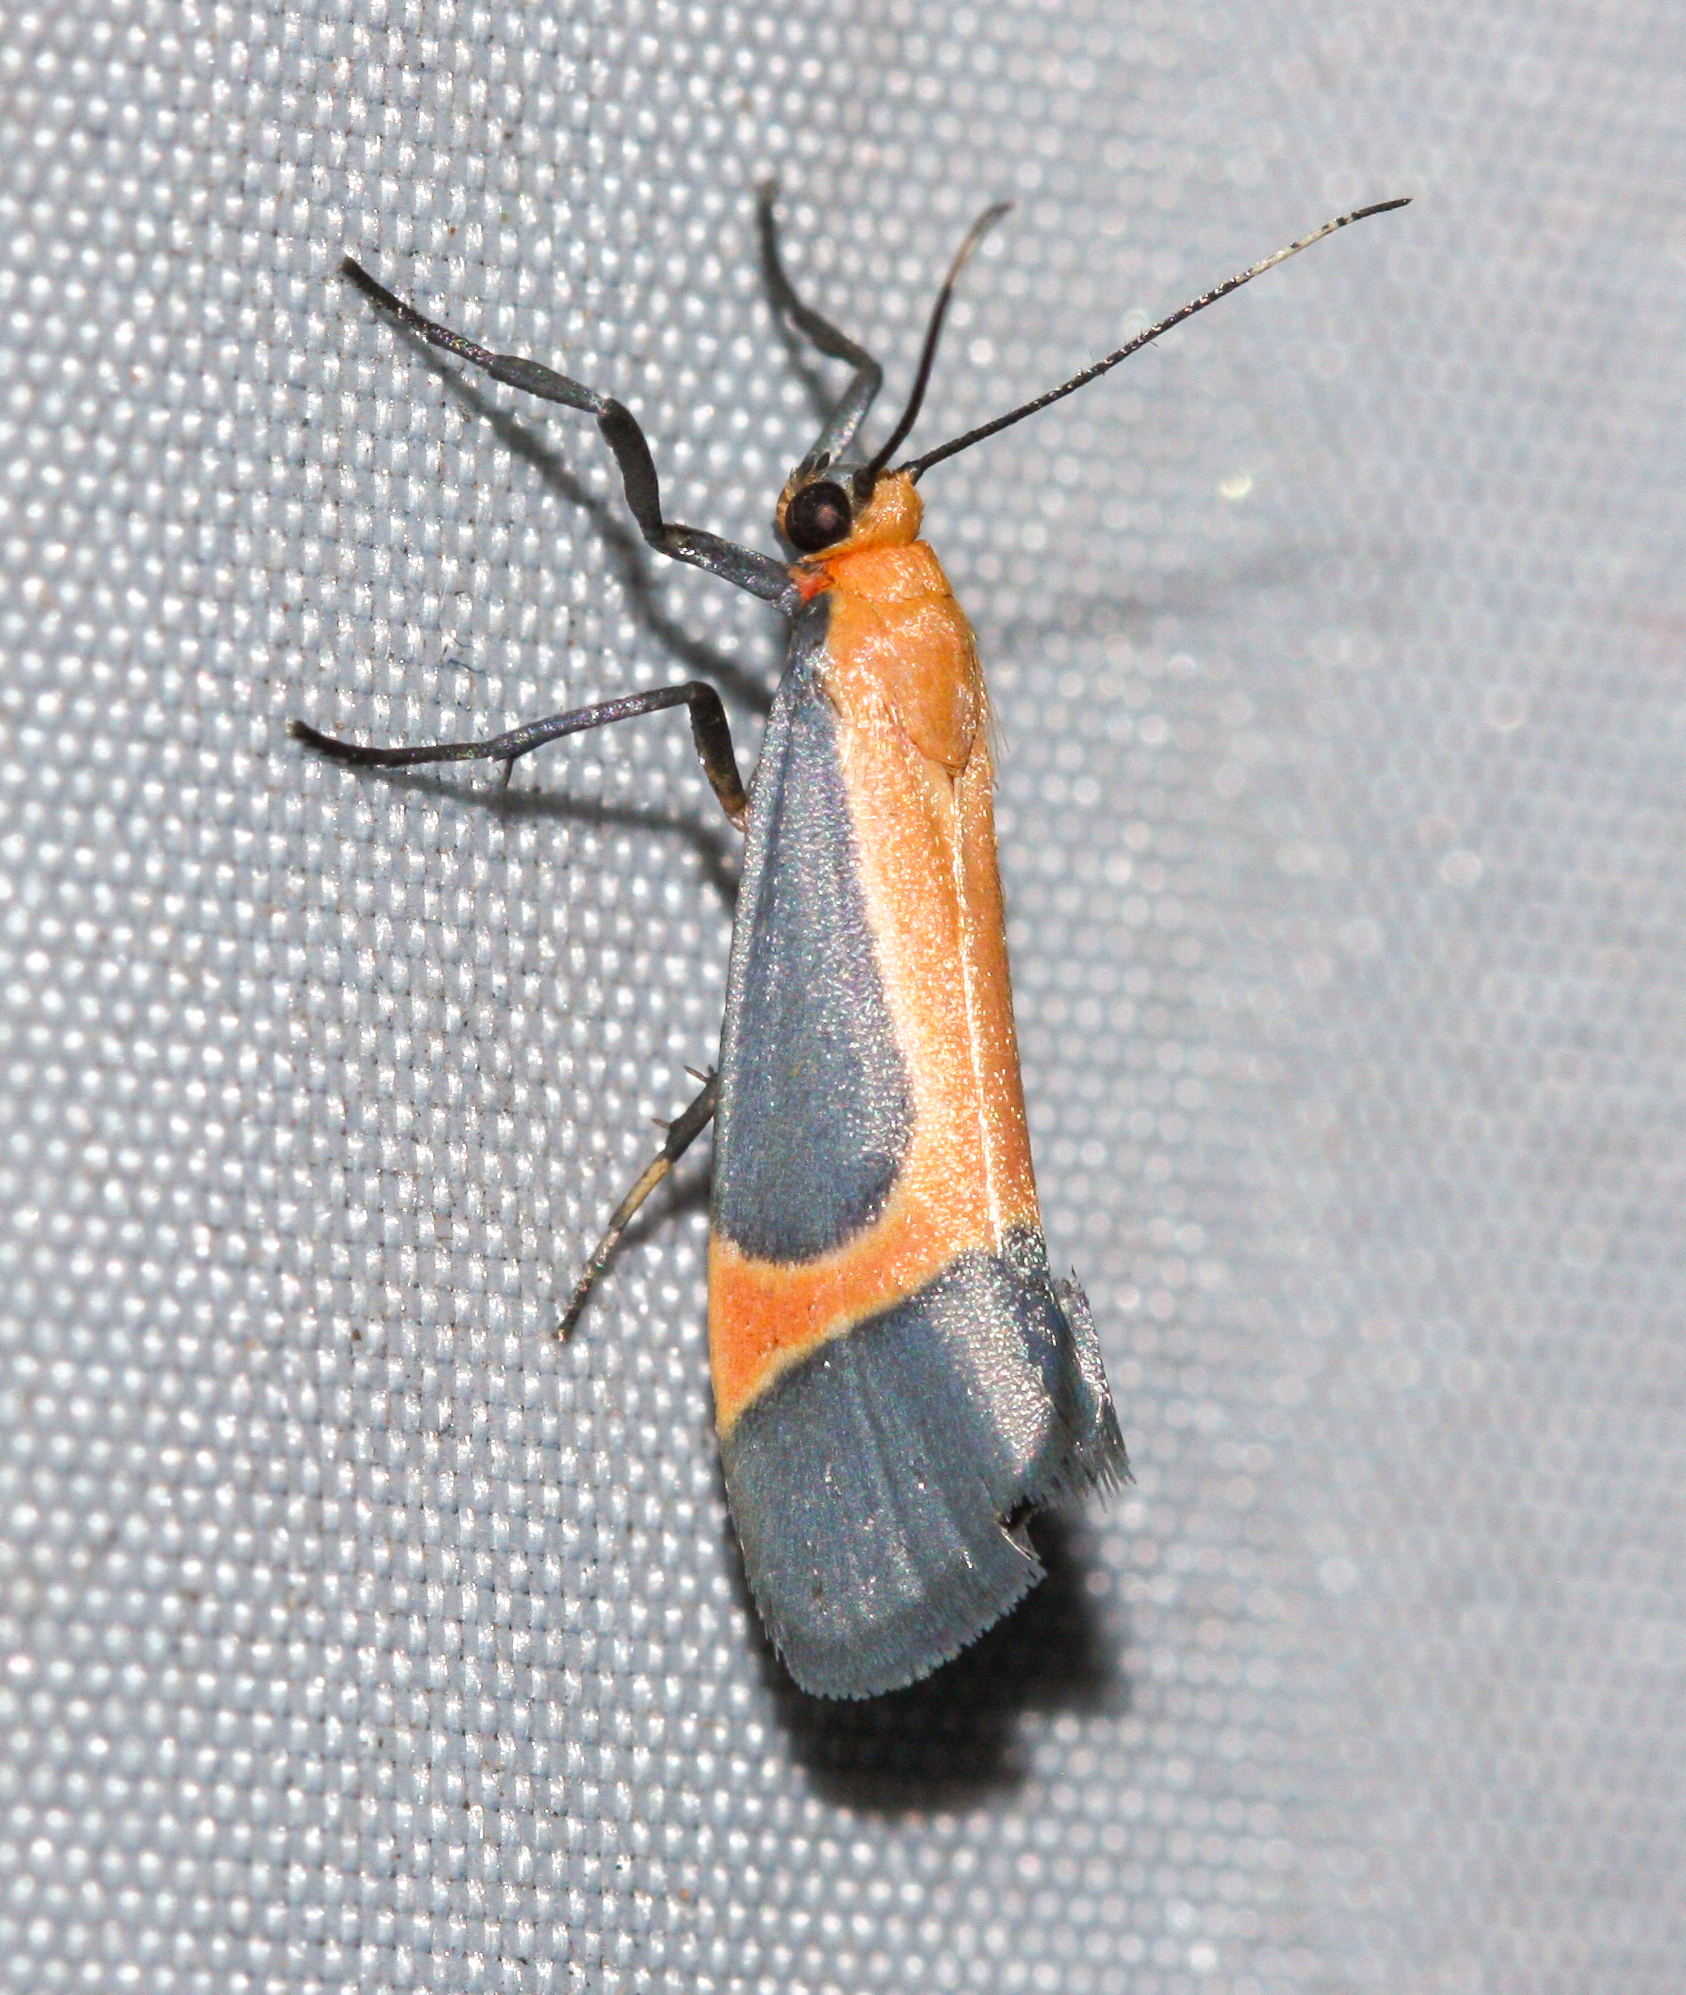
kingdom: Animalia
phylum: Arthropoda
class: Insecta
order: Lepidoptera
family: Erebidae
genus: Cisthene
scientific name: Cisthene angelus
